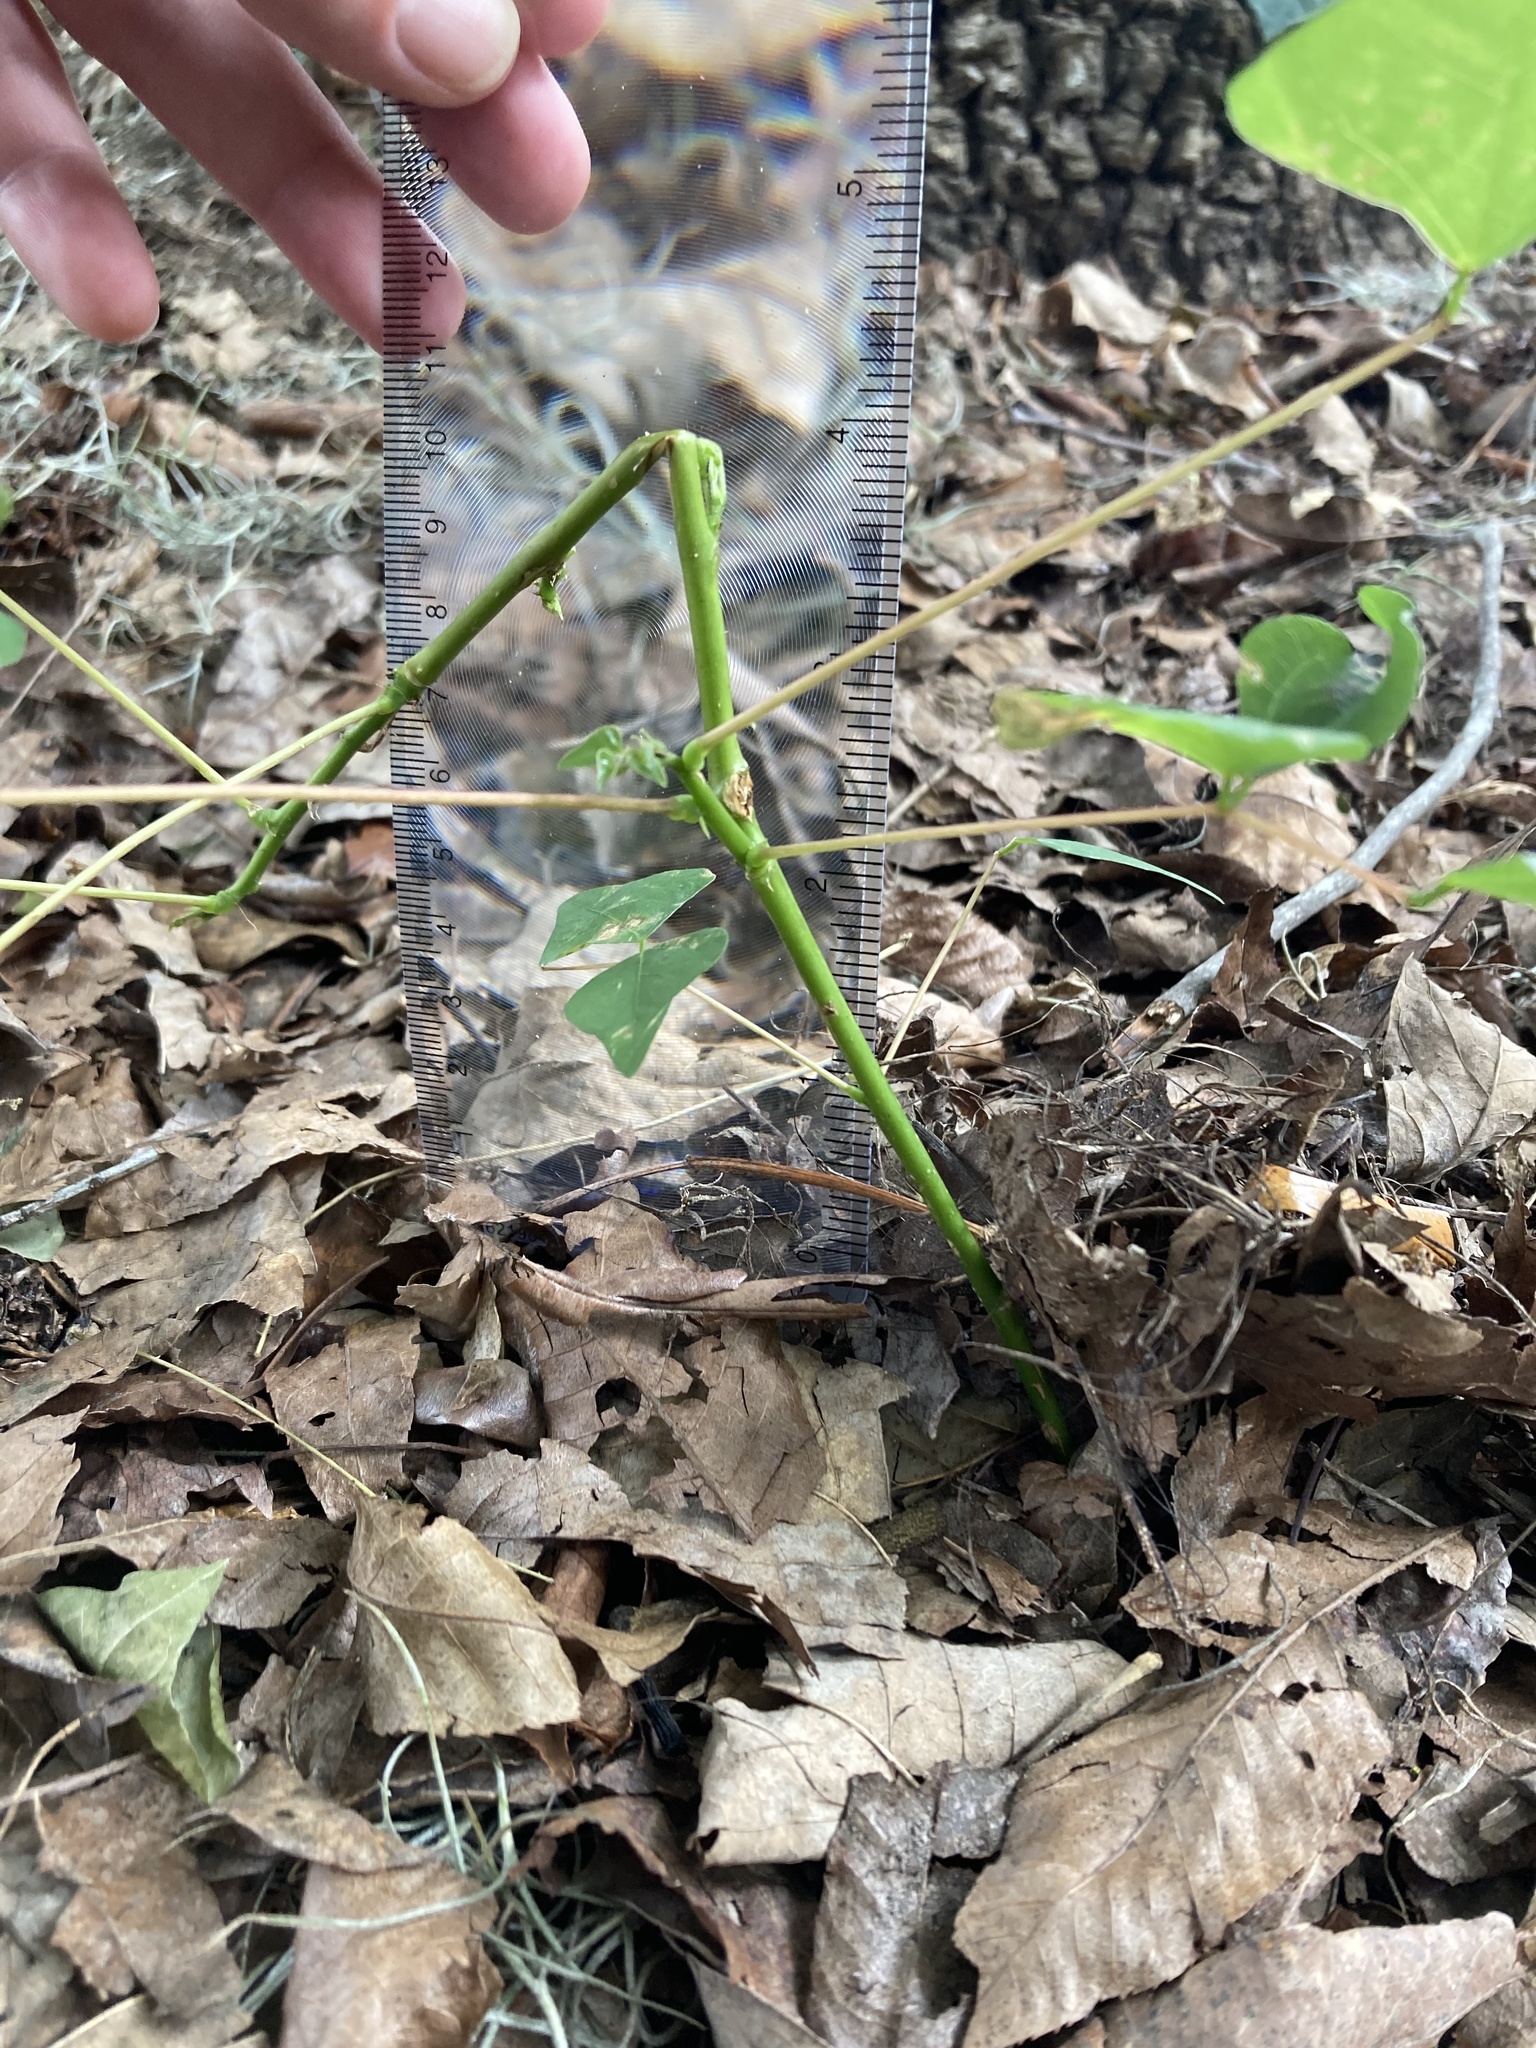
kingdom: Plantae
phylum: Tracheophyta
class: Magnoliopsida
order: Fabales
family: Fabaceae
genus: Erythrina
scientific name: Erythrina herbacea
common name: Coral-bean
